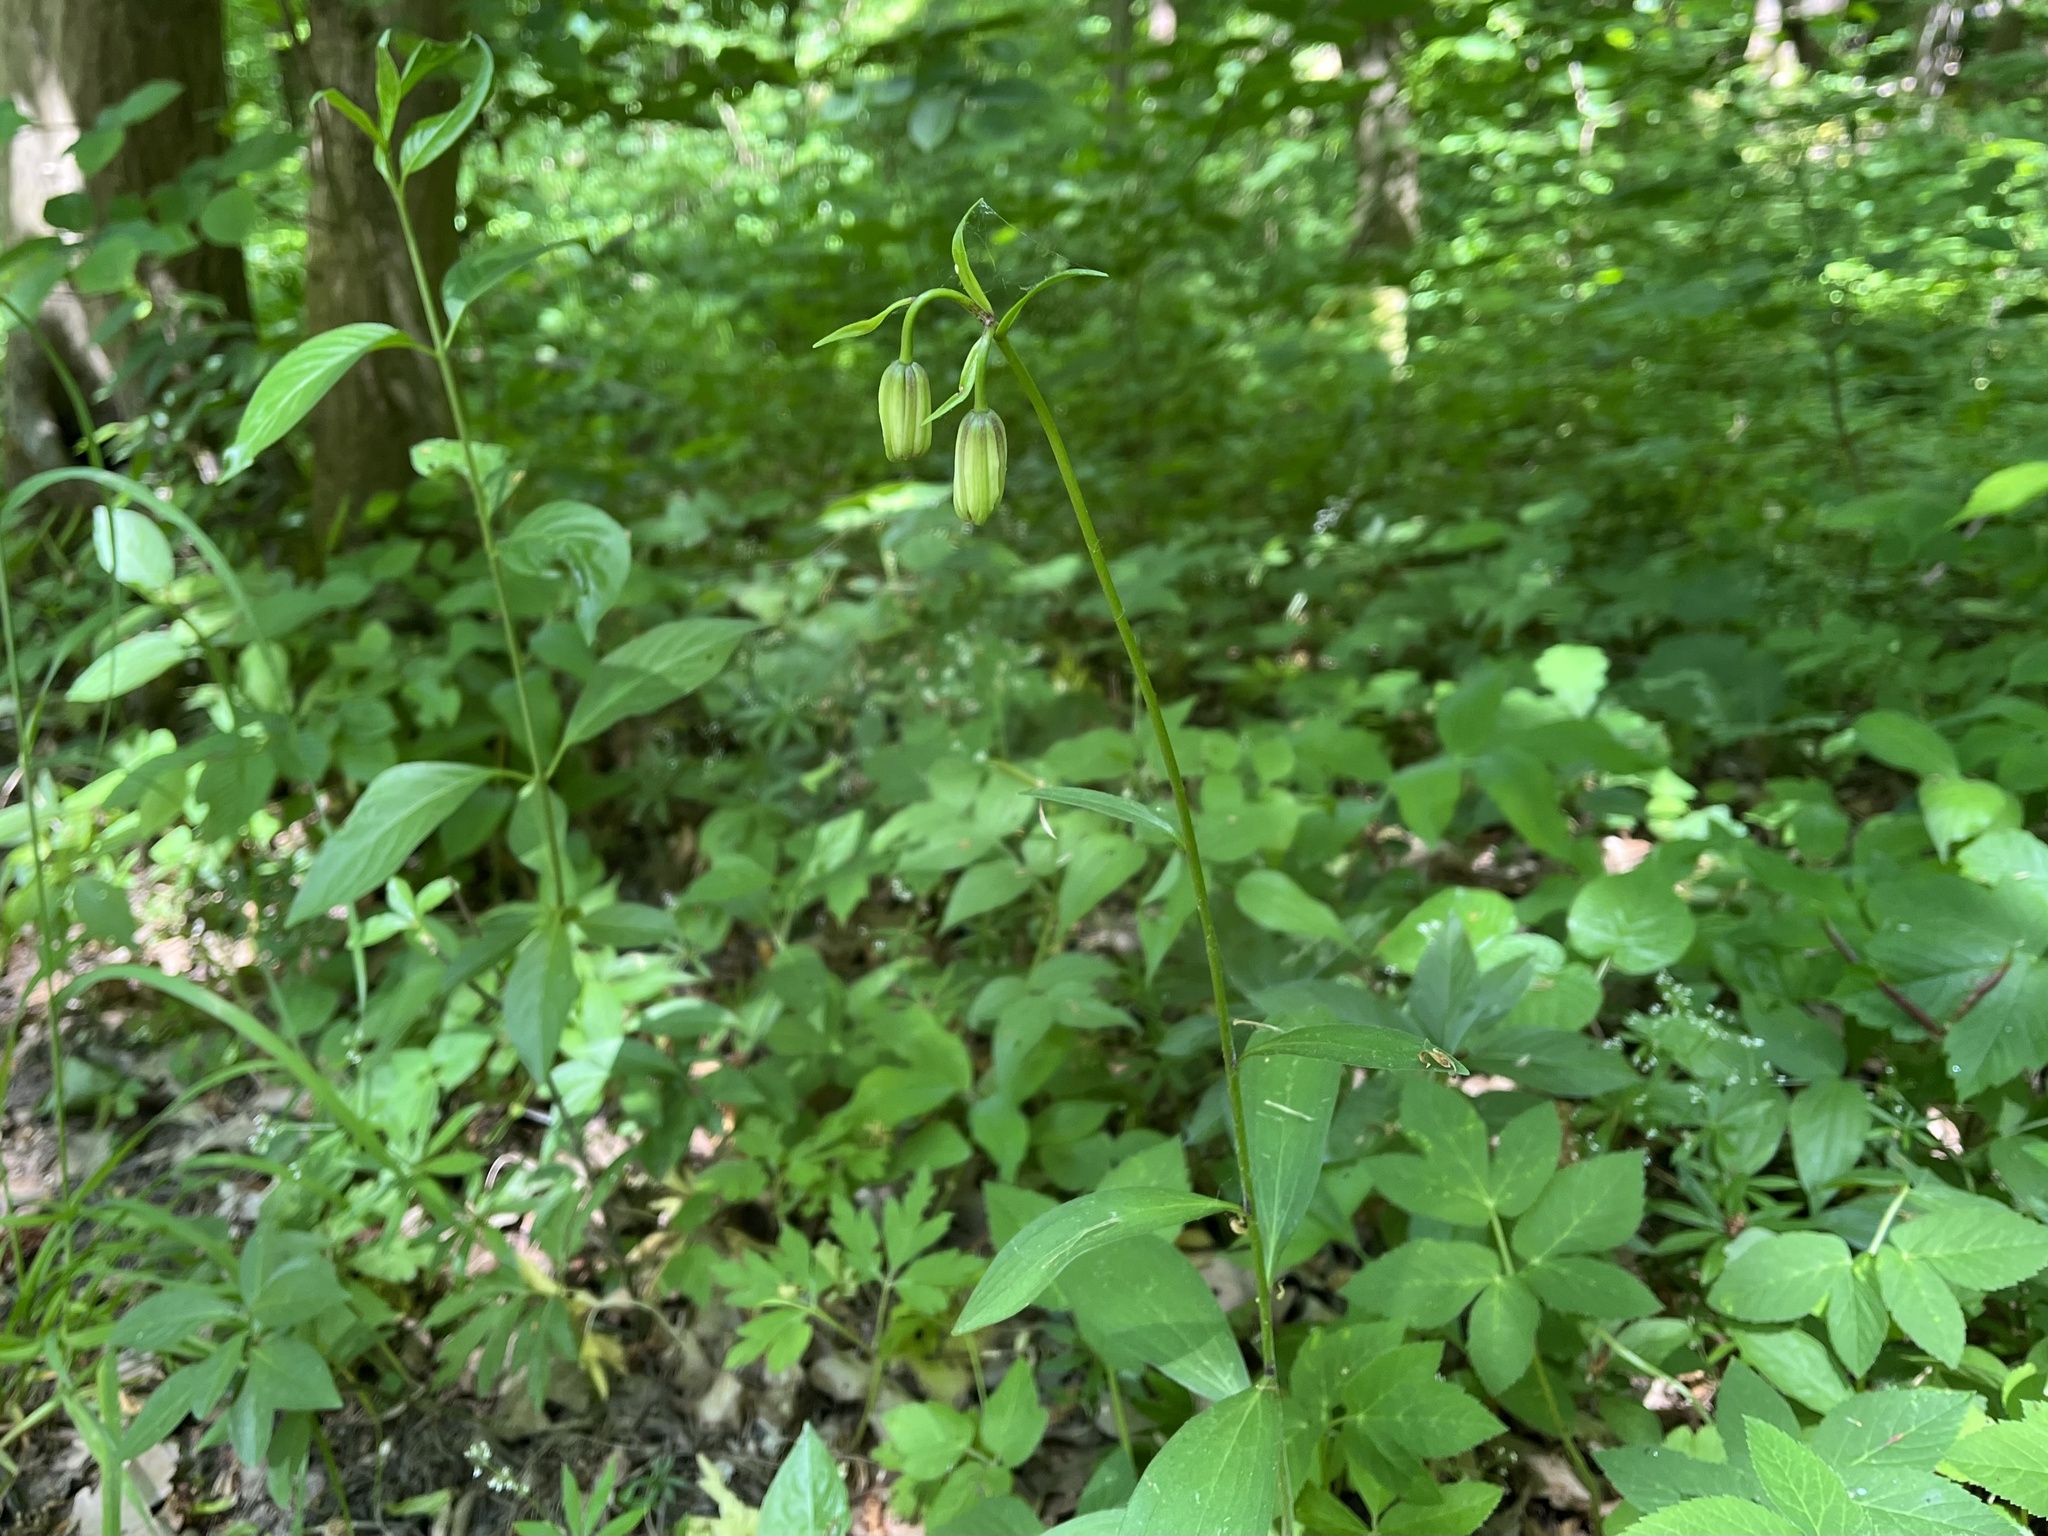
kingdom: Plantae
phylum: Tracheophyta
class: Liliopsida
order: Liliales
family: Liliaceae
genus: Lilium
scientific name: Lilium martagon
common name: Martagon lily
